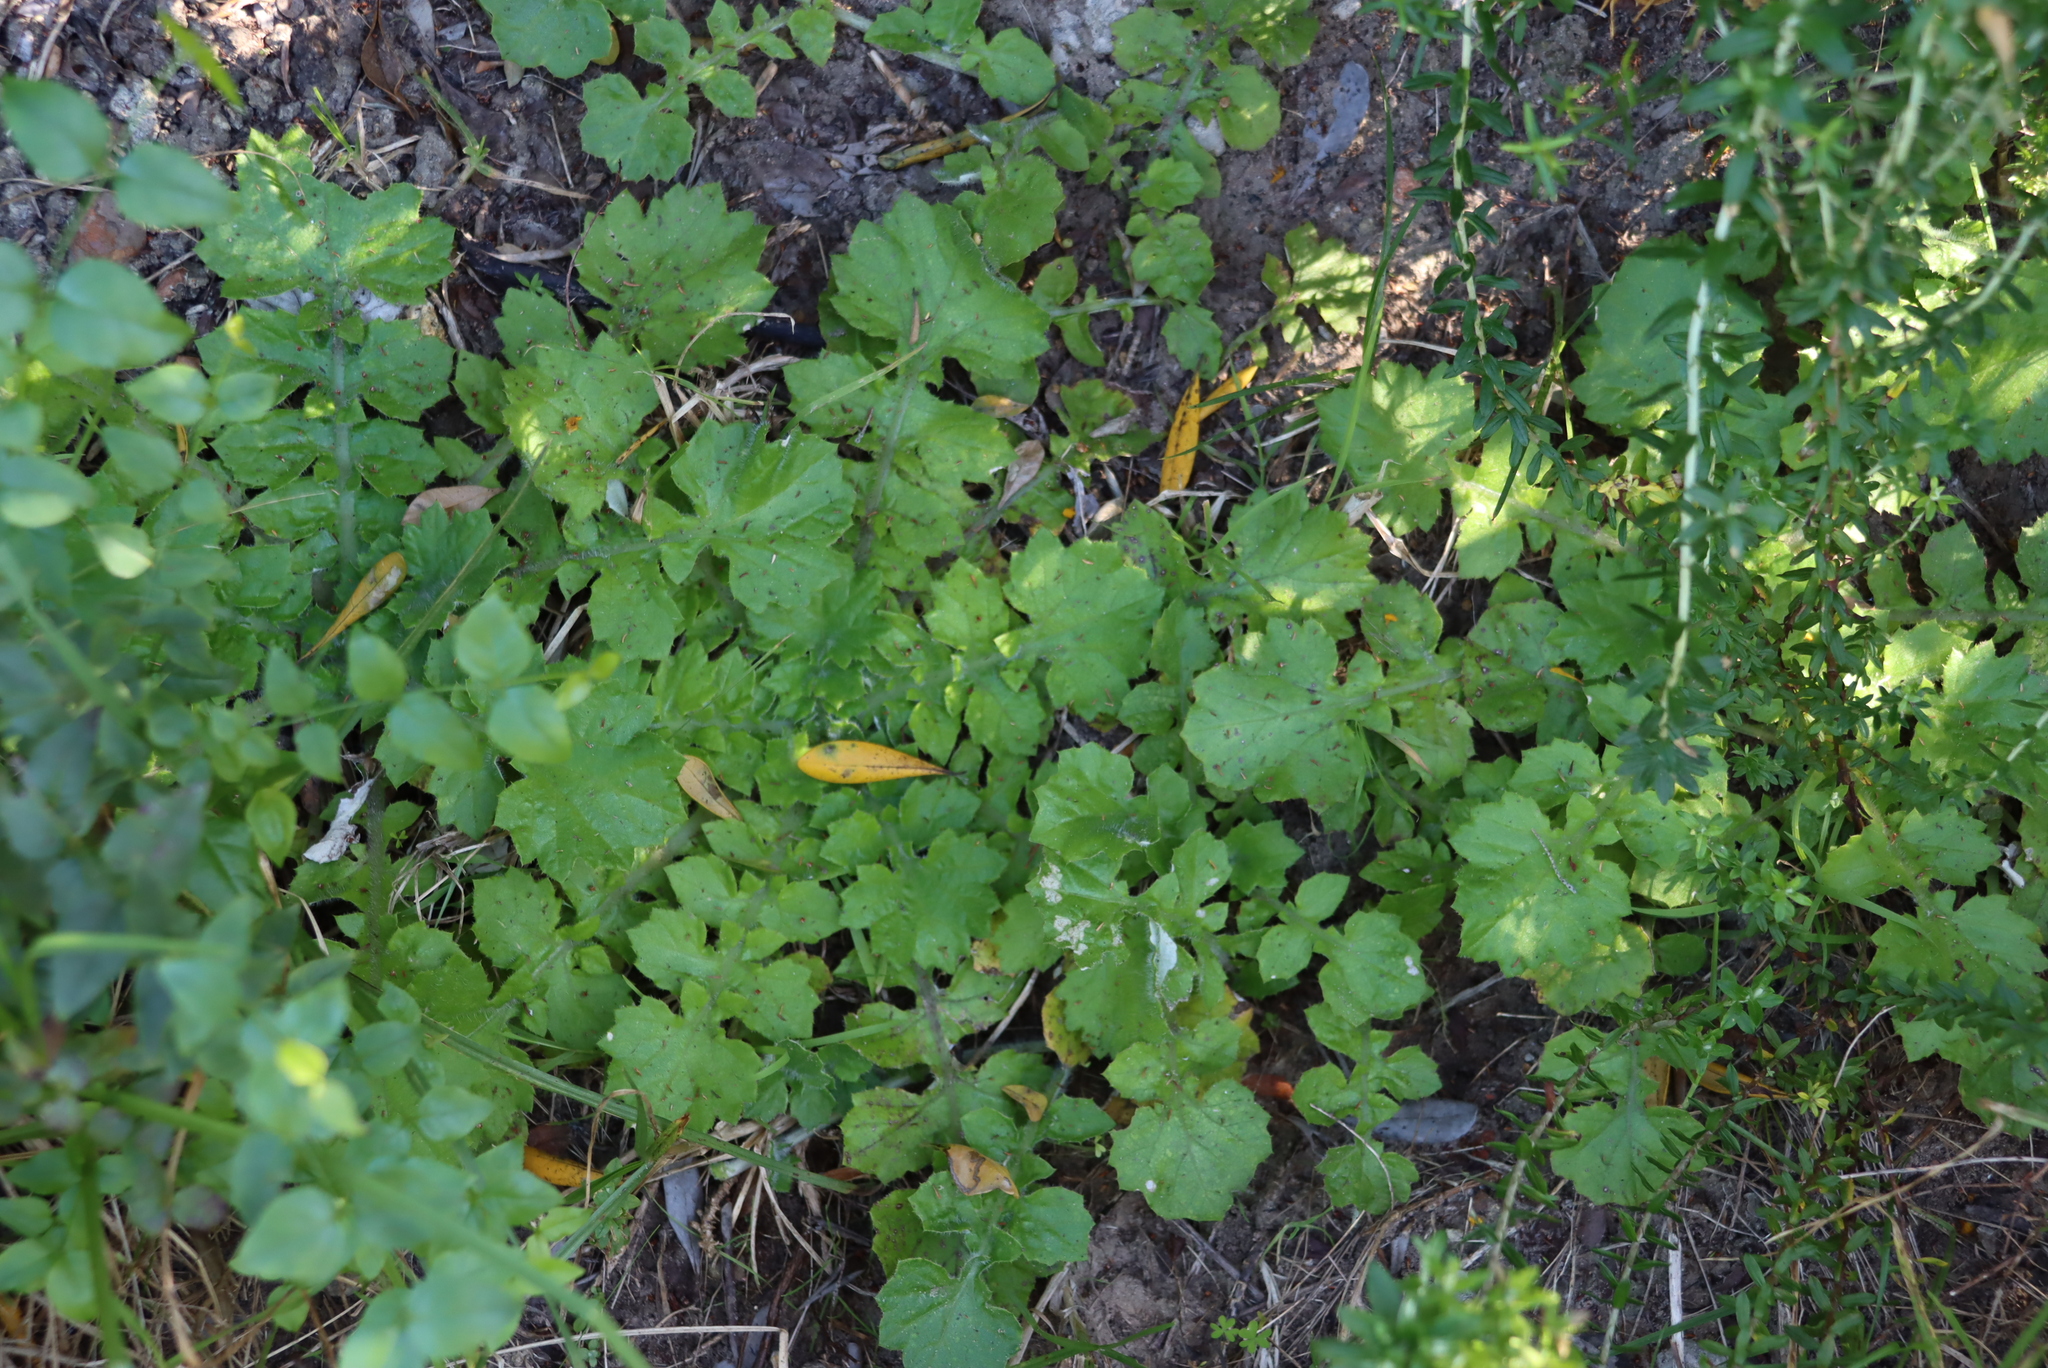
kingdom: Plantae
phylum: Tracheophyta
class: Magnoliopsida
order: Asterales
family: Asteraceae
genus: Arctotheca
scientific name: Arctotheca prostrata
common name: Capeweed
